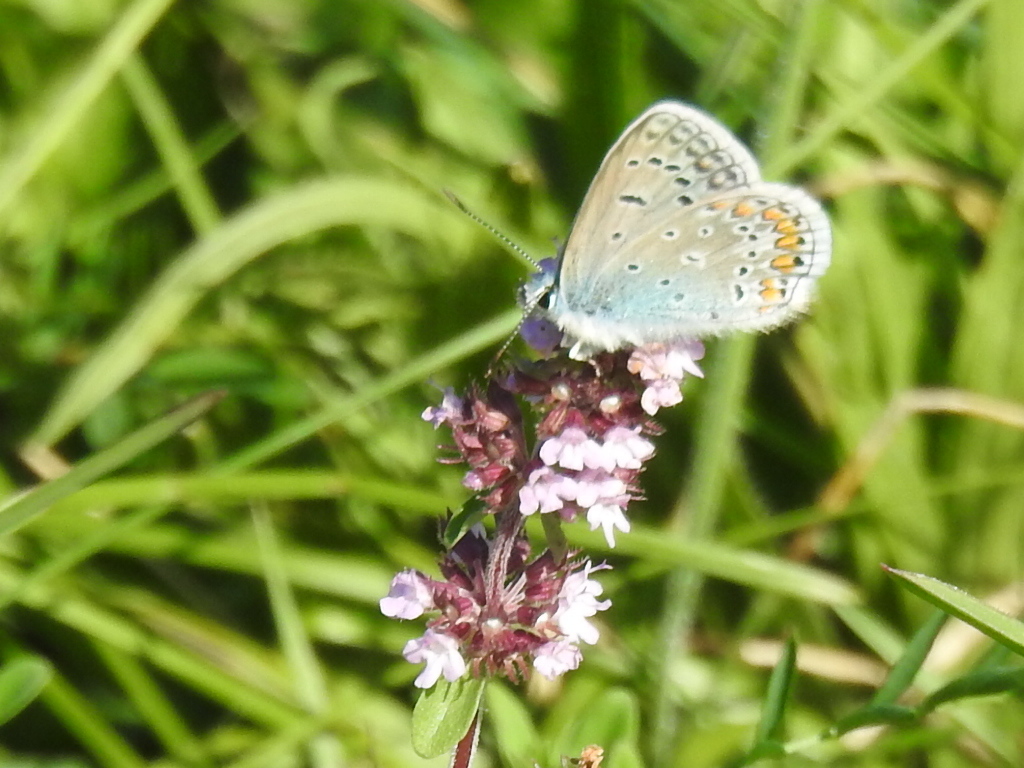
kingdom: Animalia
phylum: Arthropoda
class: Insecta
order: Lepidoptera
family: Lycaenidae
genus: Polyommatus
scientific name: Polyommatus icarus
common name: Common blue
